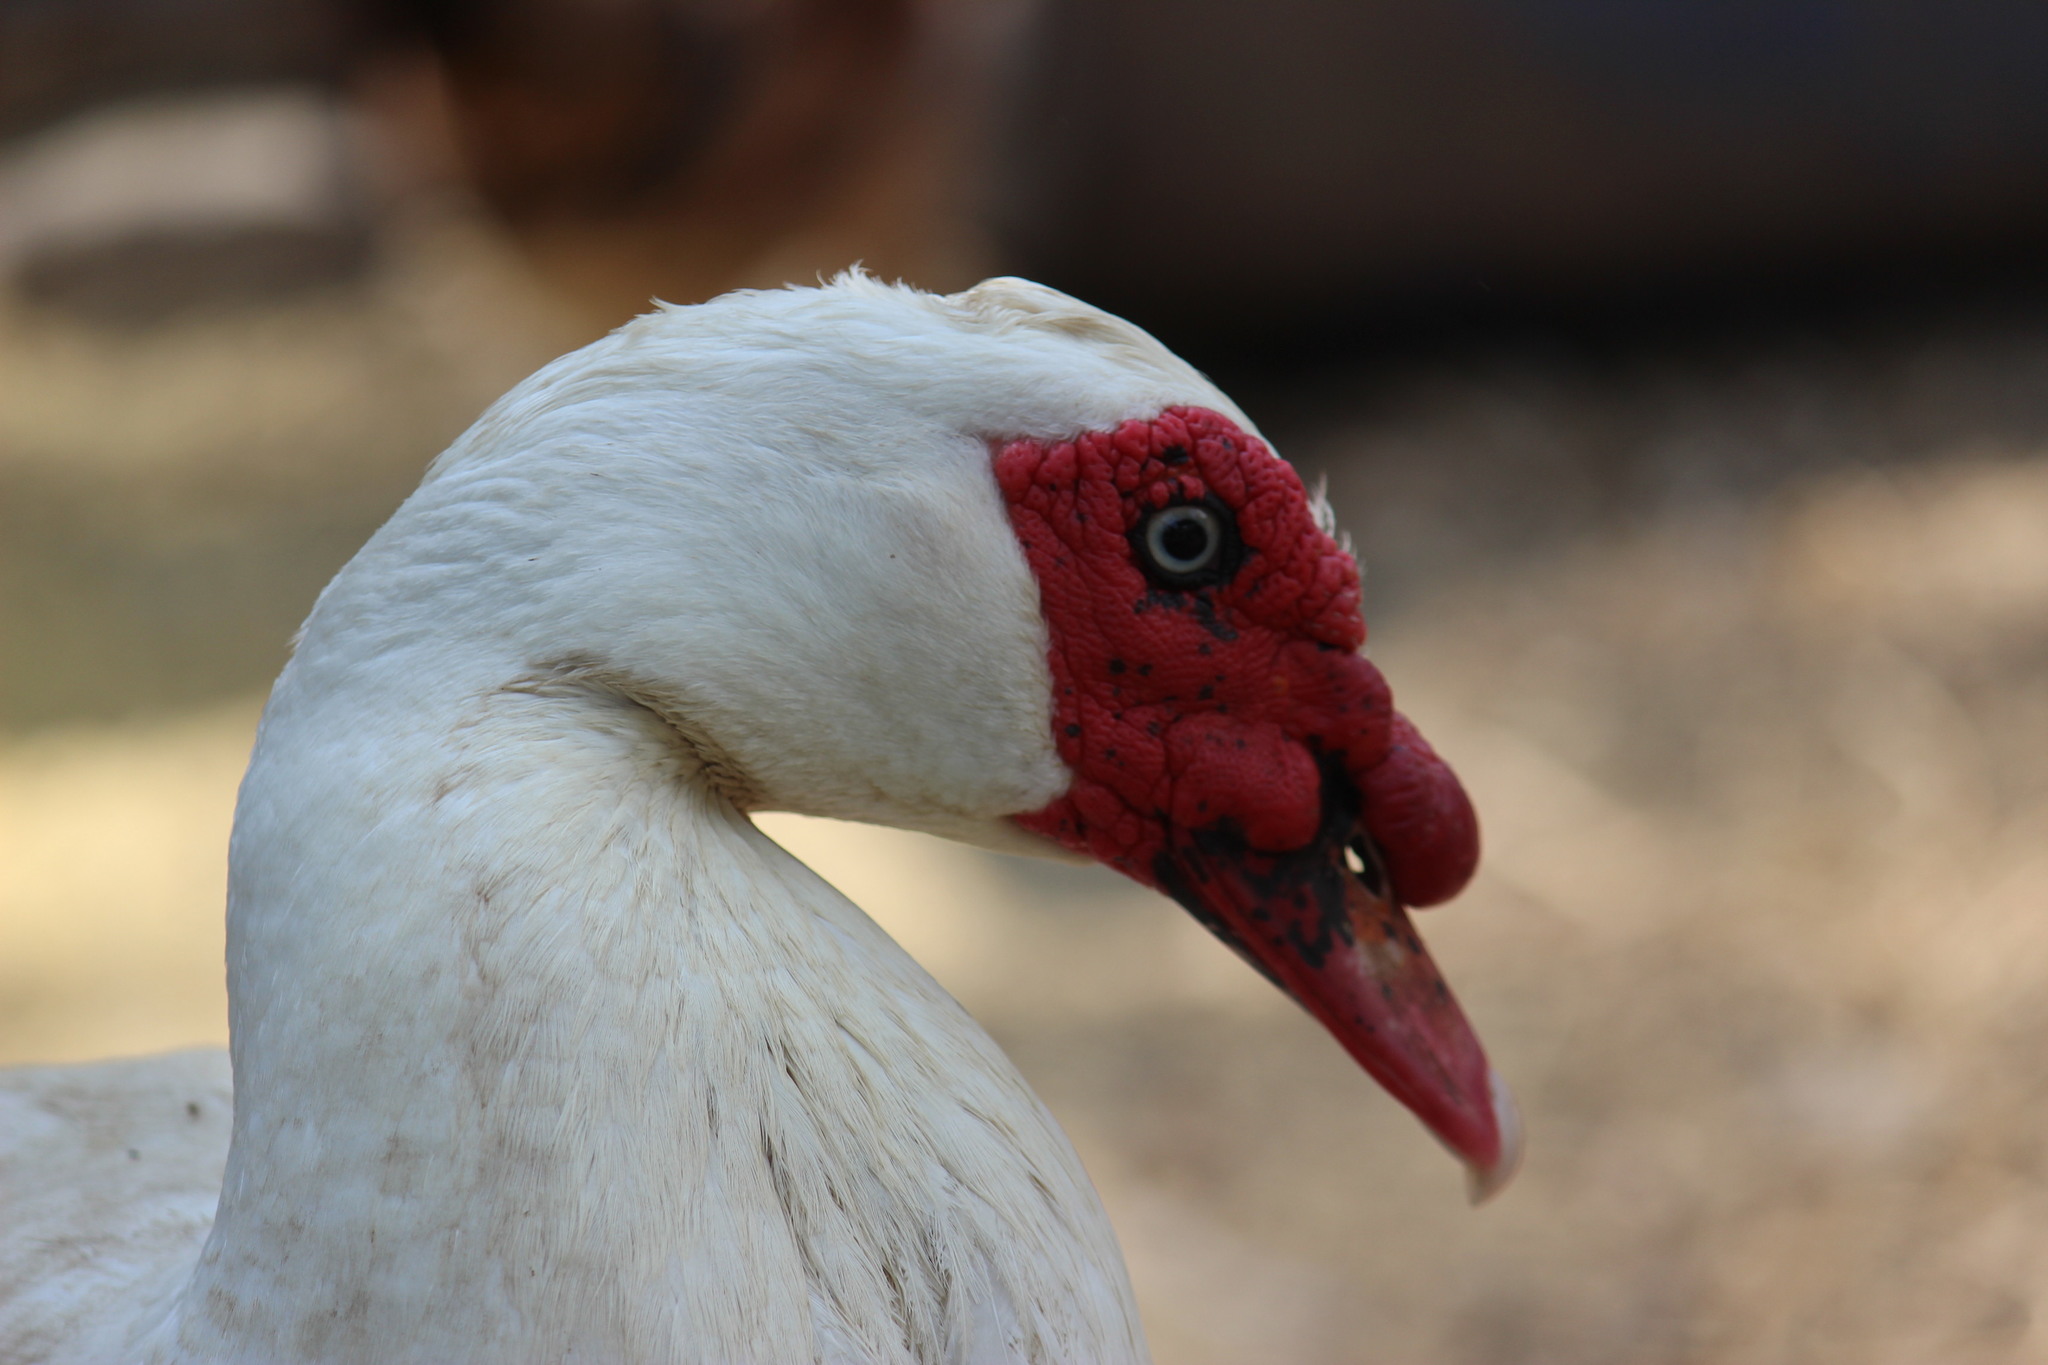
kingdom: Animalia
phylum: Chordata
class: Aves
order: Anseriformes
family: Anatidae
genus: Cairina
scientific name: Cairina moschata
